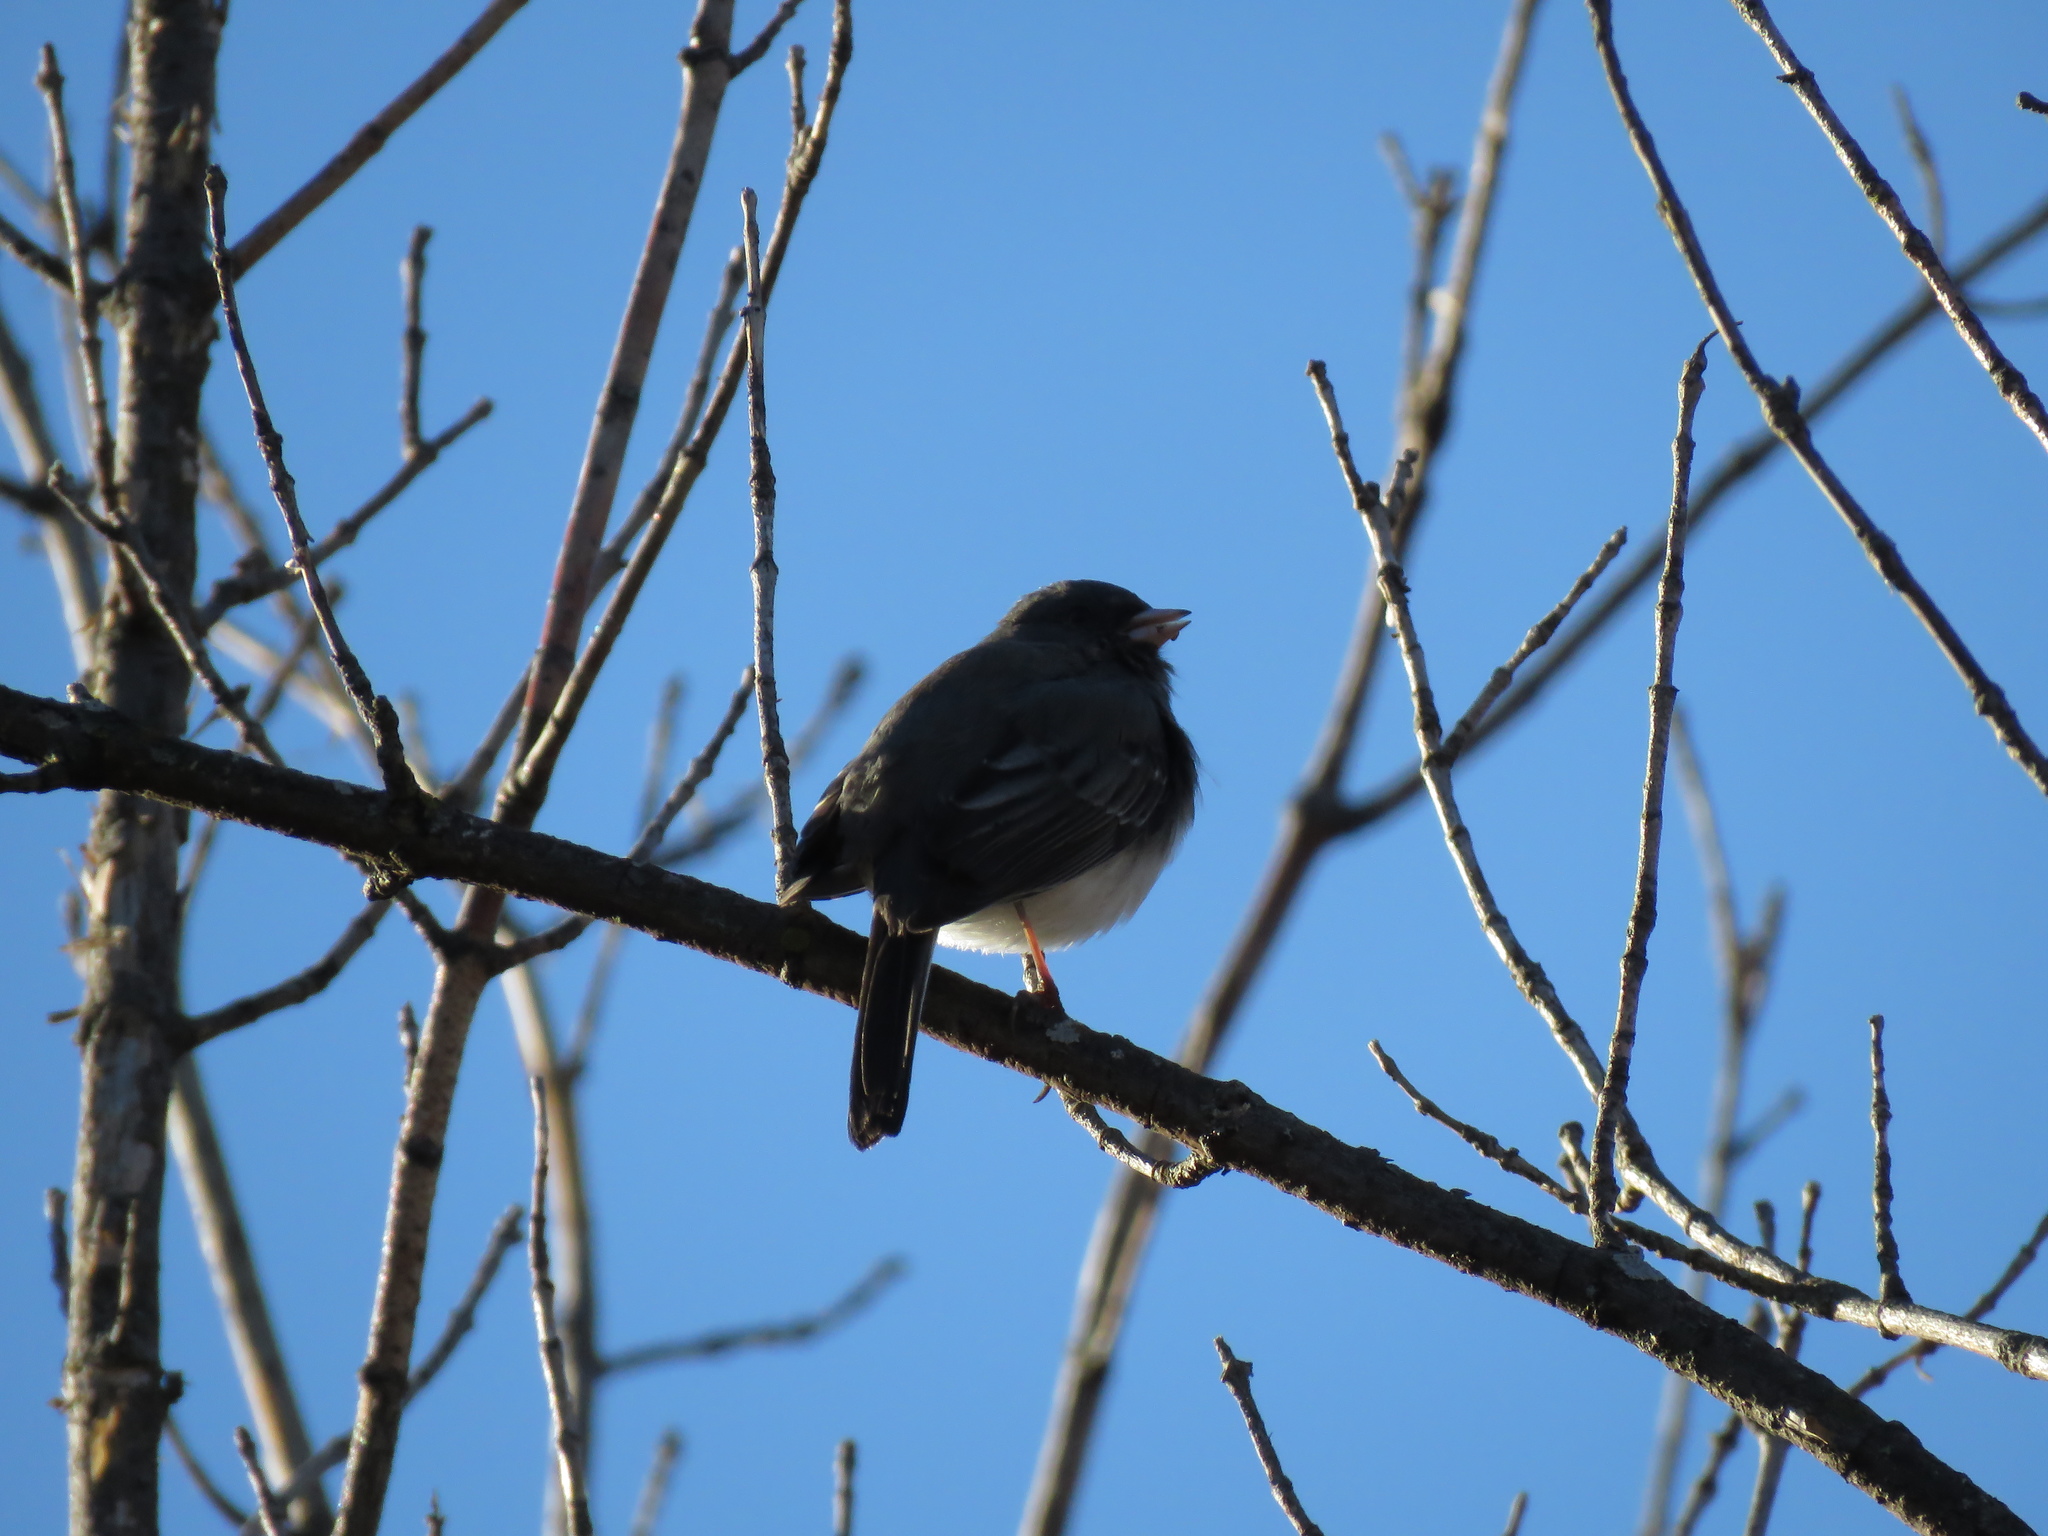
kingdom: Animalia
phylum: Chordata
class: Aves
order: Passeriformes
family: Passerellidae
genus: Junco
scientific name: Junco hyemalis
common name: Dark-eyed junco
